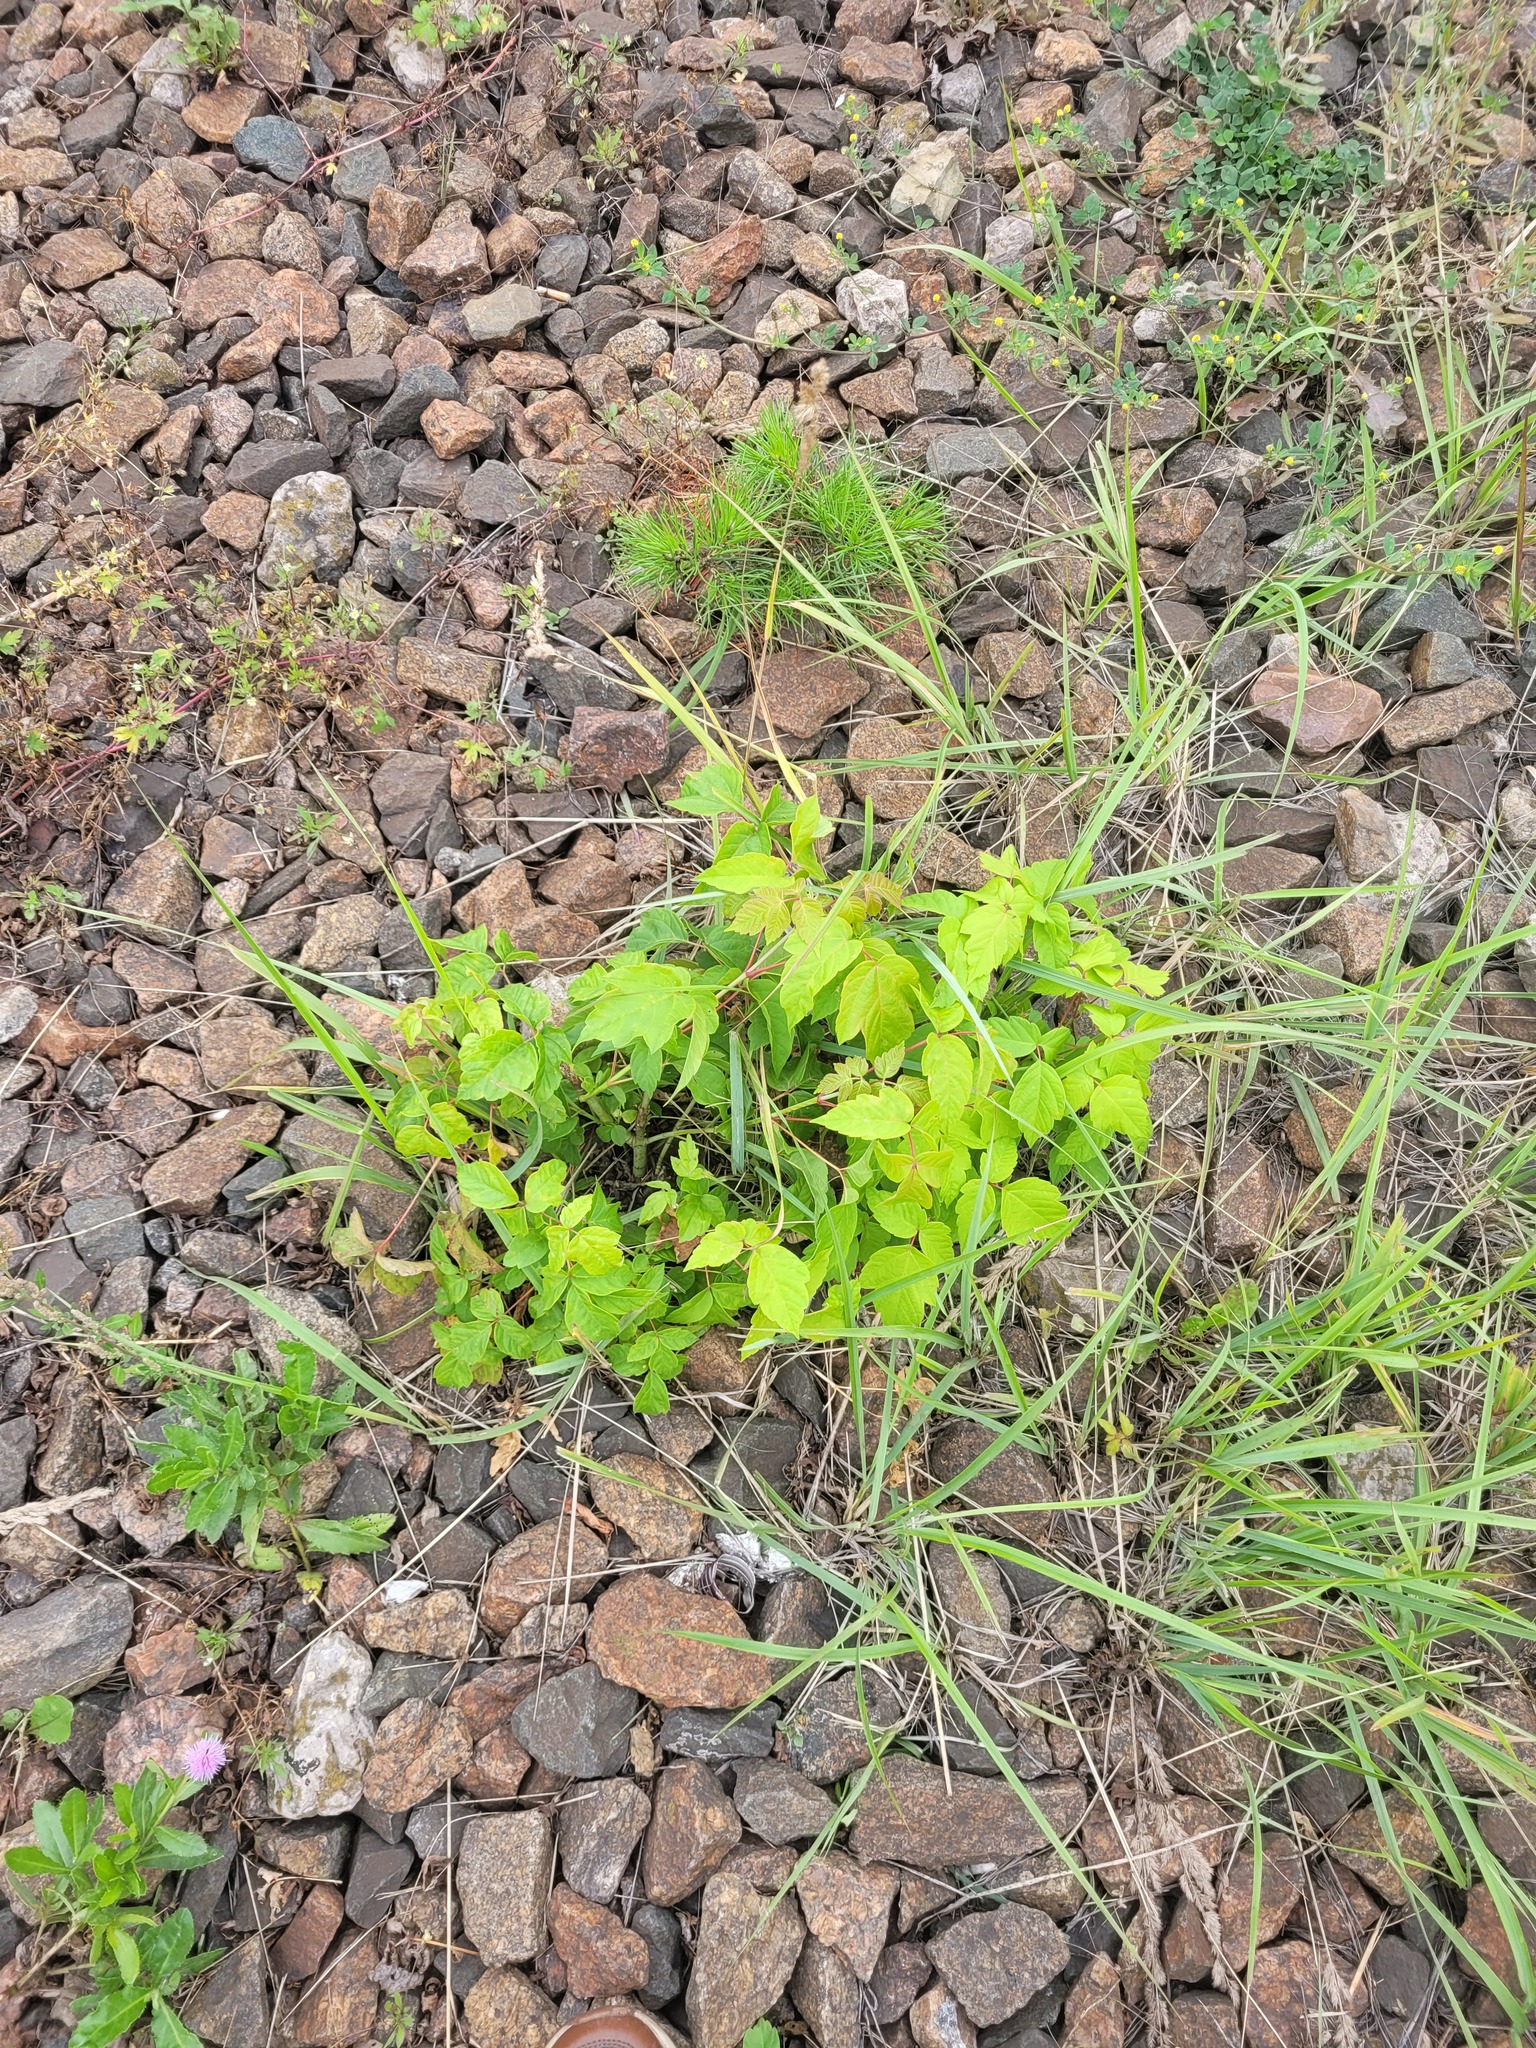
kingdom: Plantae
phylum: Tracheophyta
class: Magnoliopsida
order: Sapindales
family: Sapindaceae
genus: Acer
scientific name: Acer negundo
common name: Ashleaf maple
